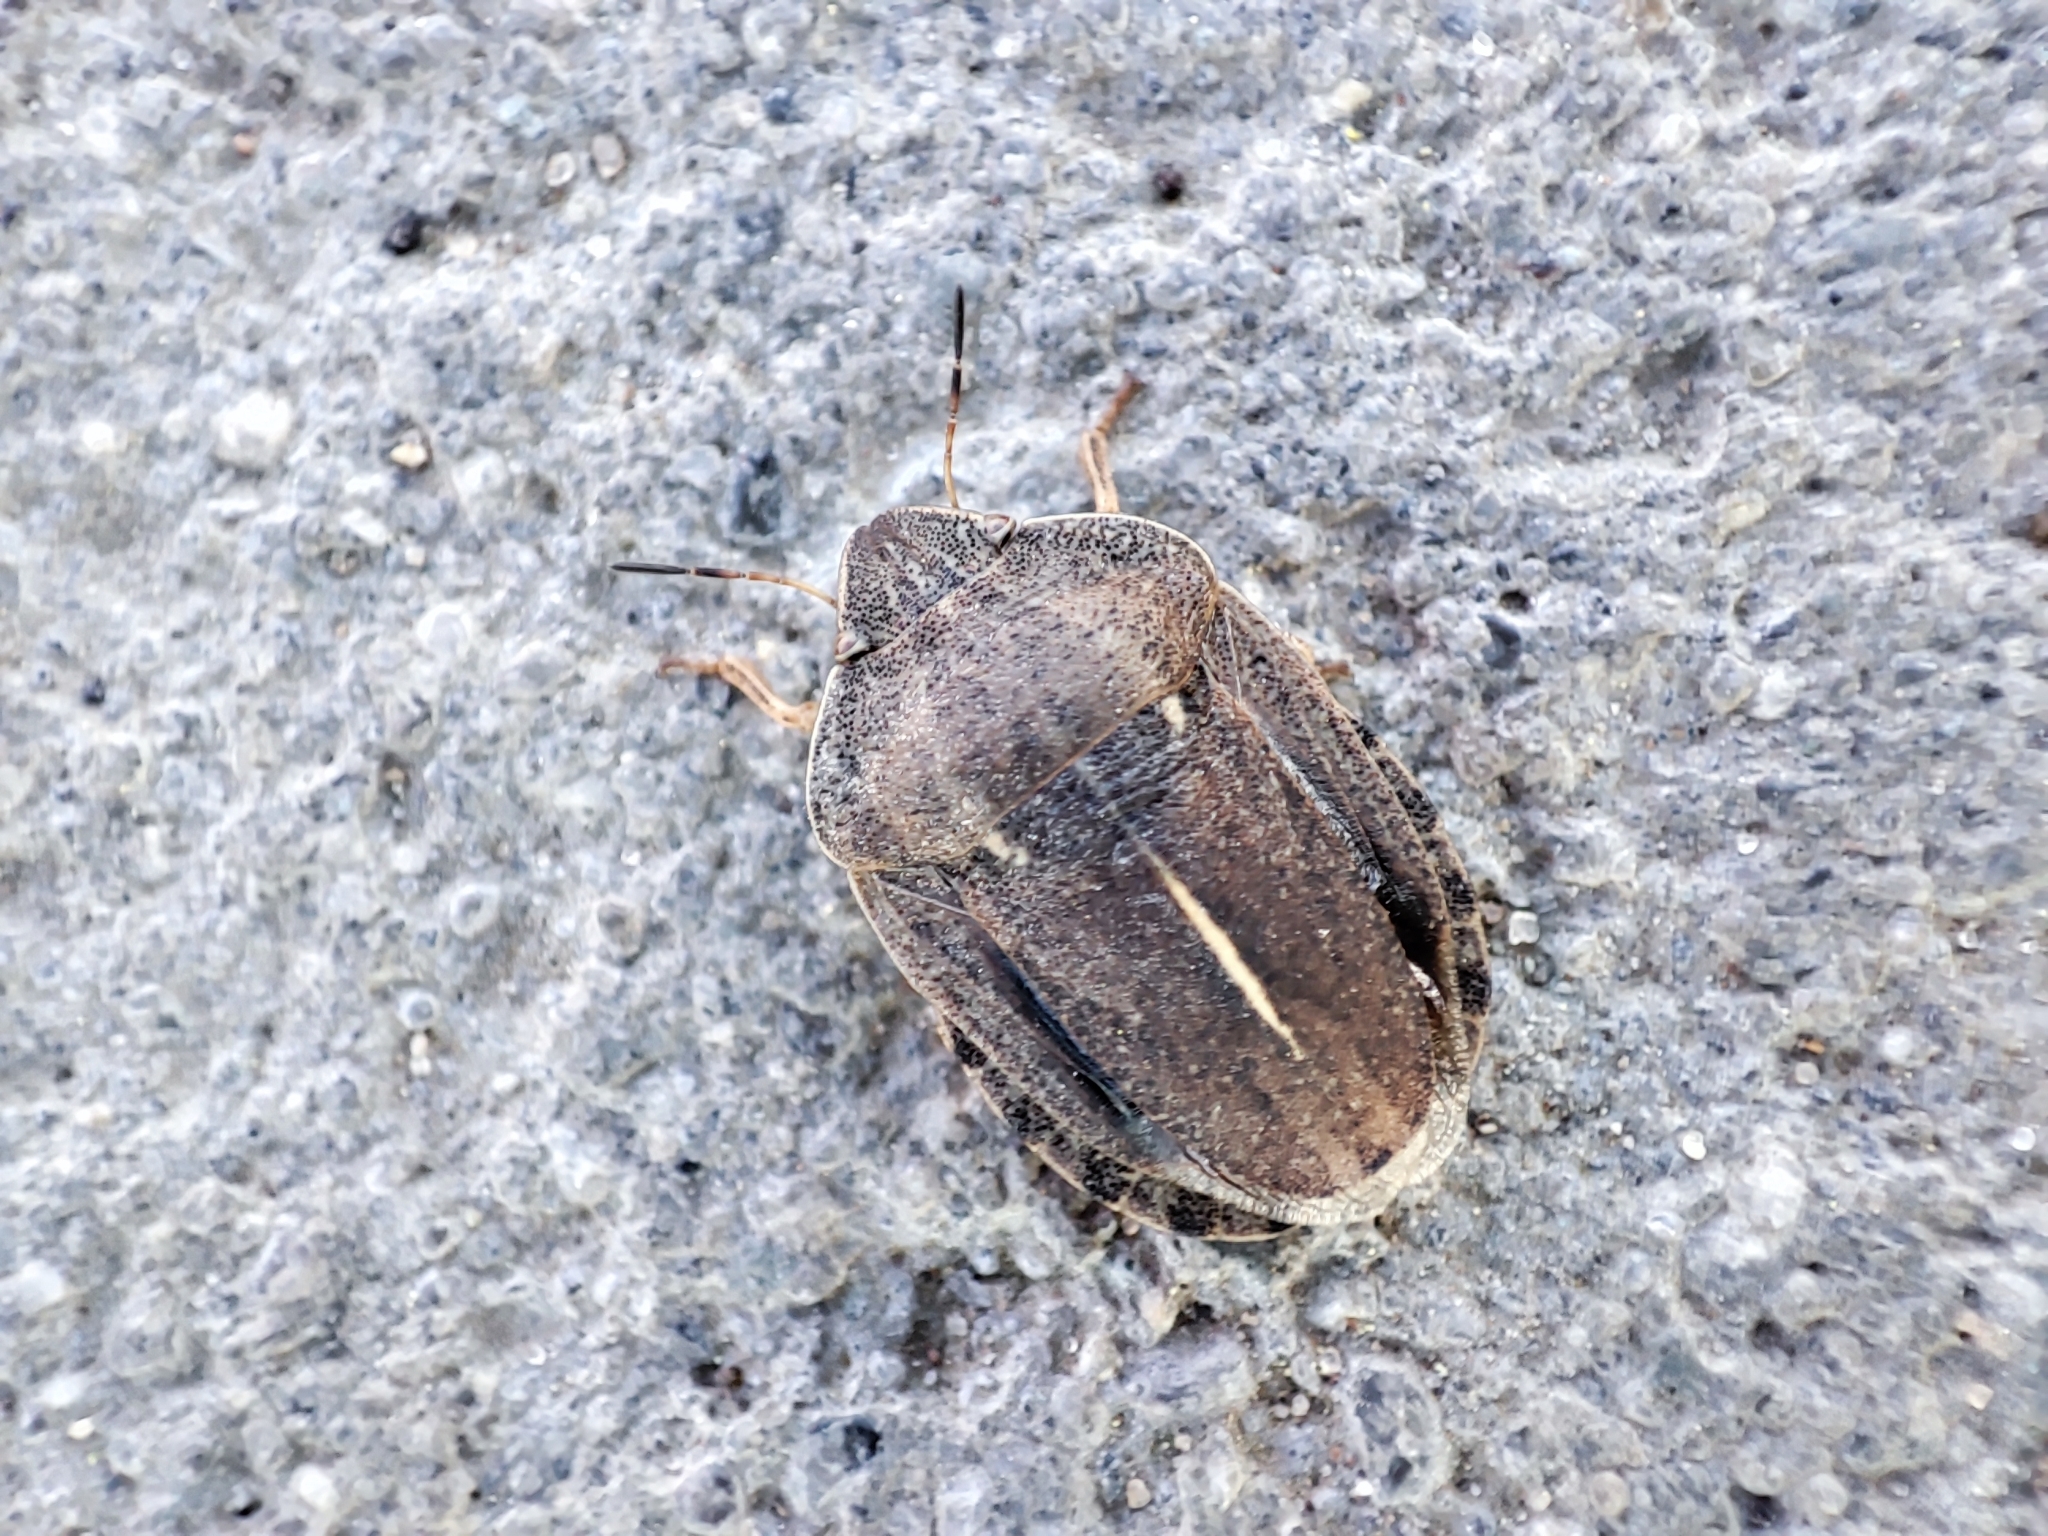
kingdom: Animalia
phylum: Arthropoda
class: Insecta
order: Hemiptera
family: Scutelleridae
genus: Eurygaster
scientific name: Eurygaster austriaca
